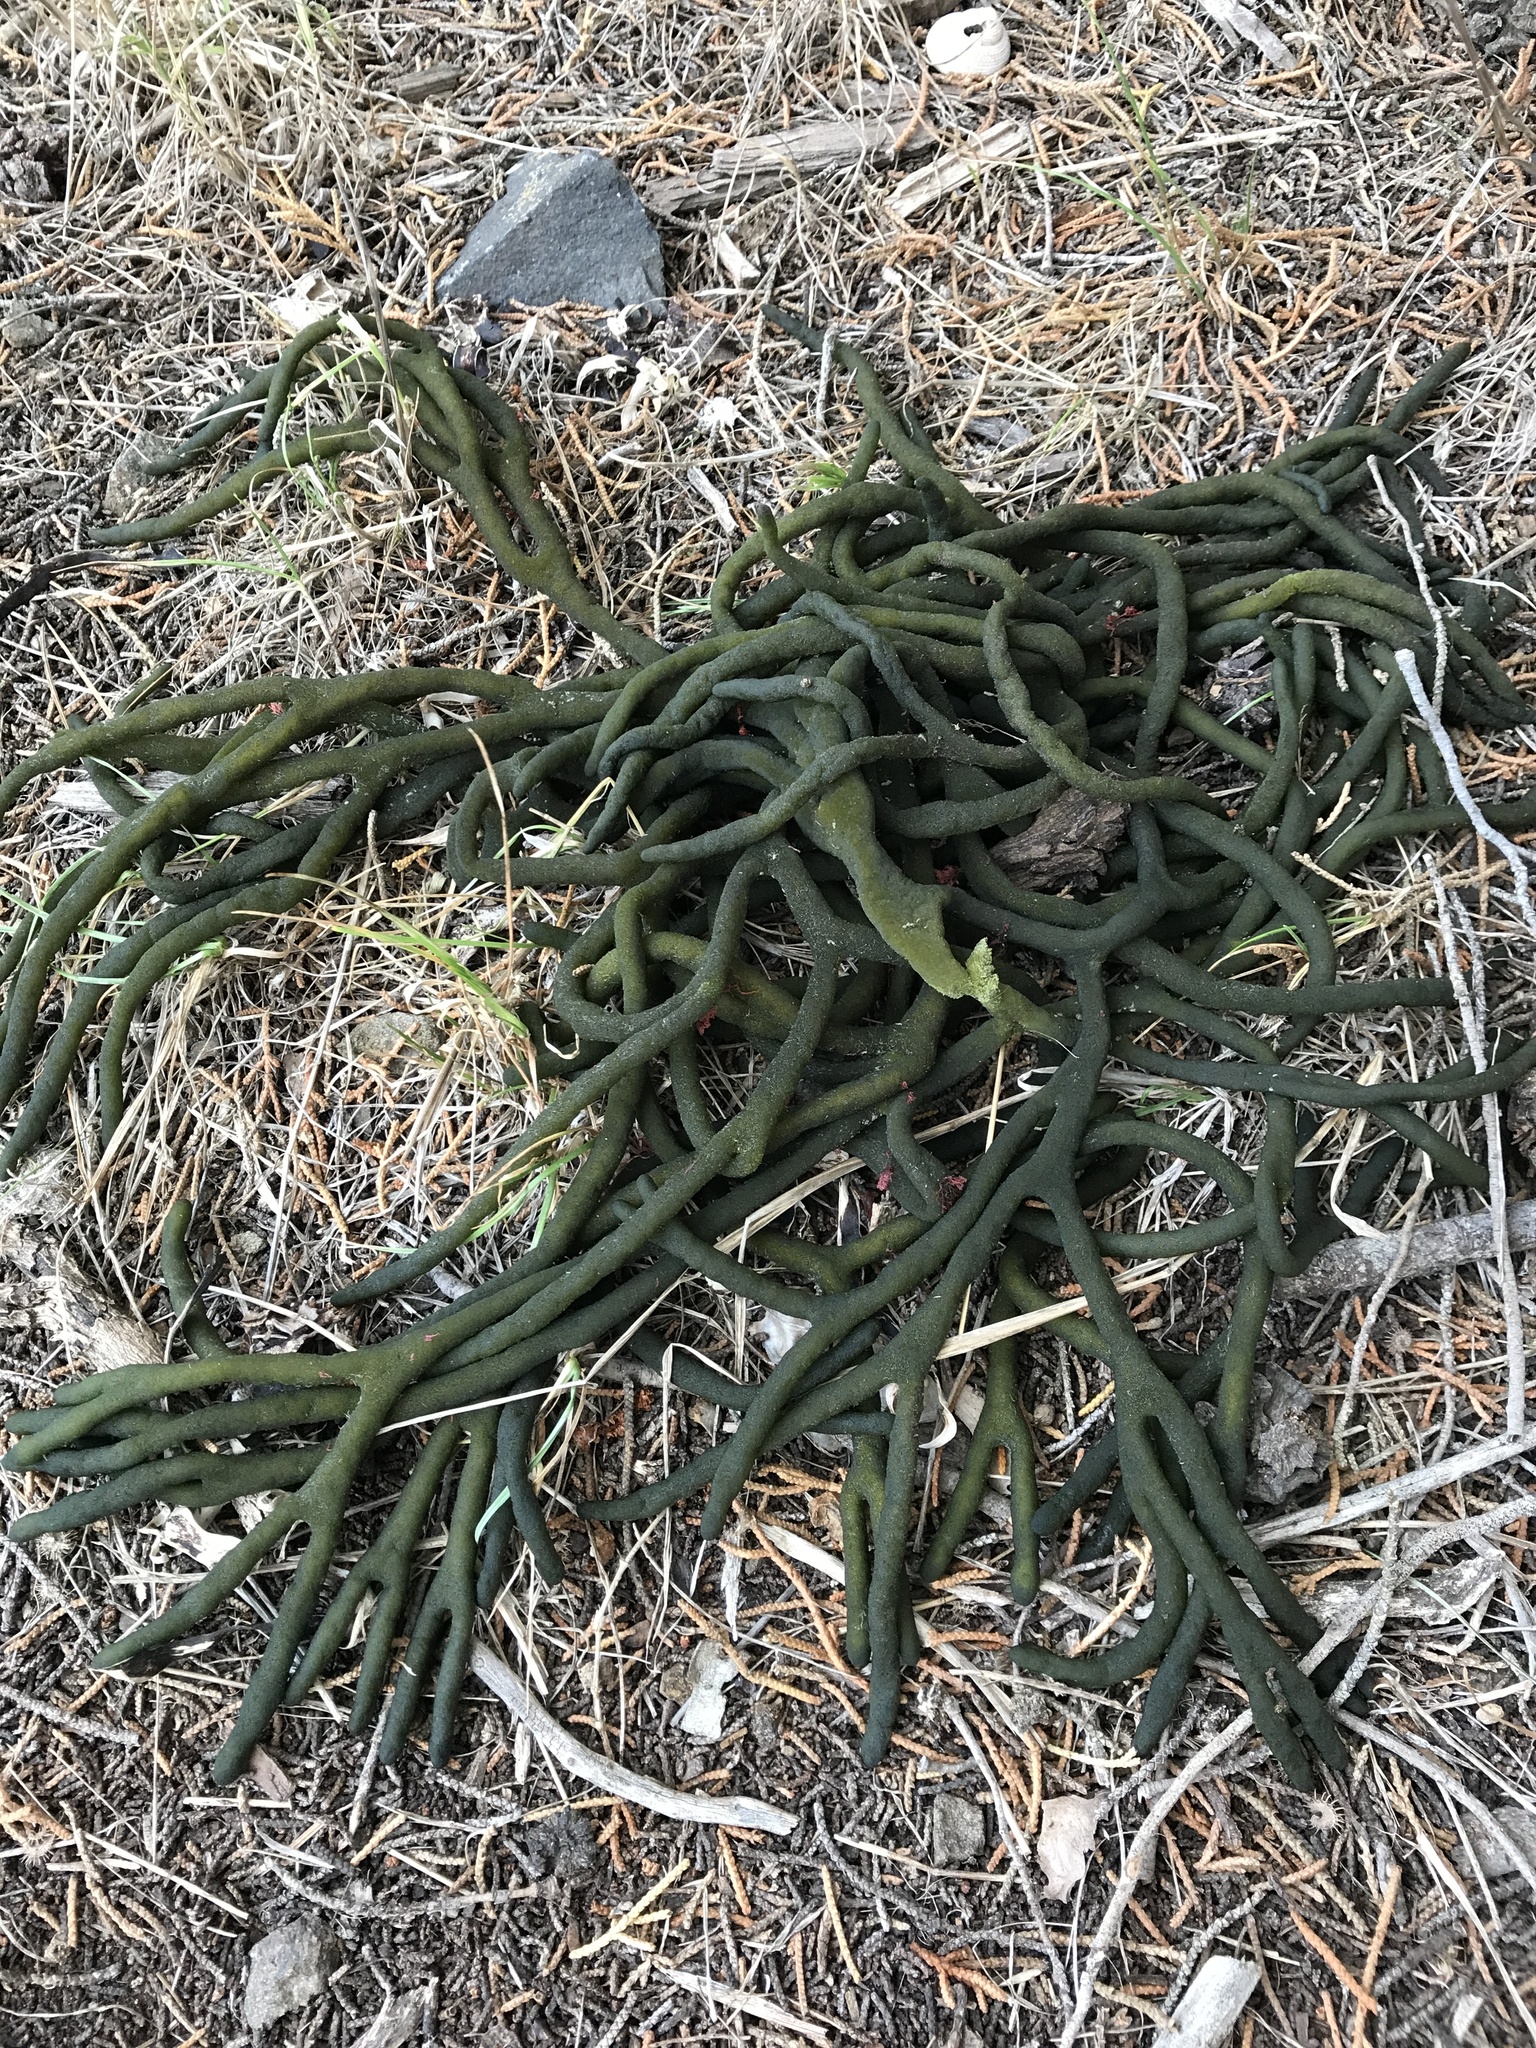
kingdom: Plantae
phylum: Chlorophyta
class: Ulvophyceae
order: Bryopsidales
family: Codiaceae
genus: Codium
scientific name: Codium fragile
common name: Dead man's fingers
